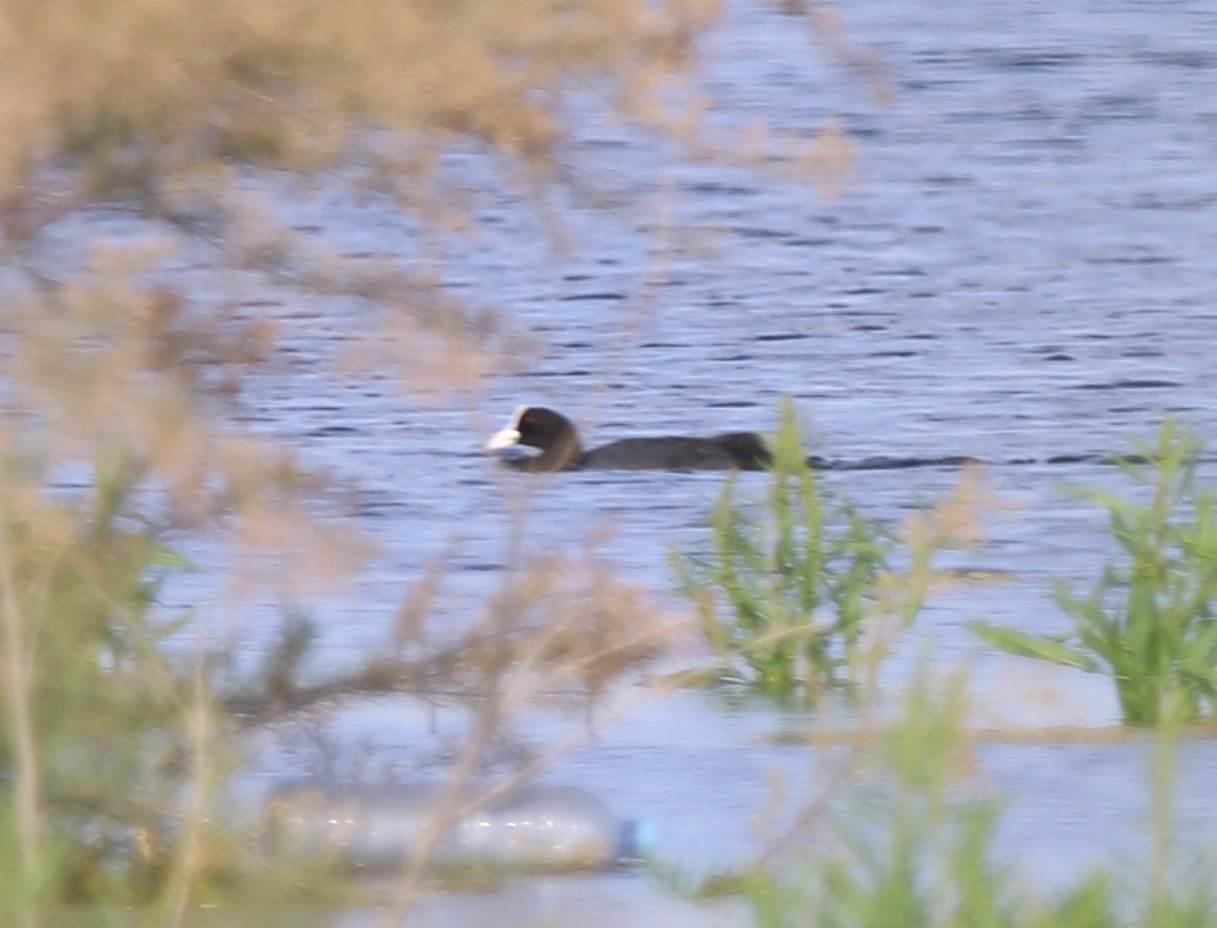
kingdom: Animalia
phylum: Chordata
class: Aves
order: Gruiformes
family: Rallidae
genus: Fulica
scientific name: Fulica atra
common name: Eurasian coot
